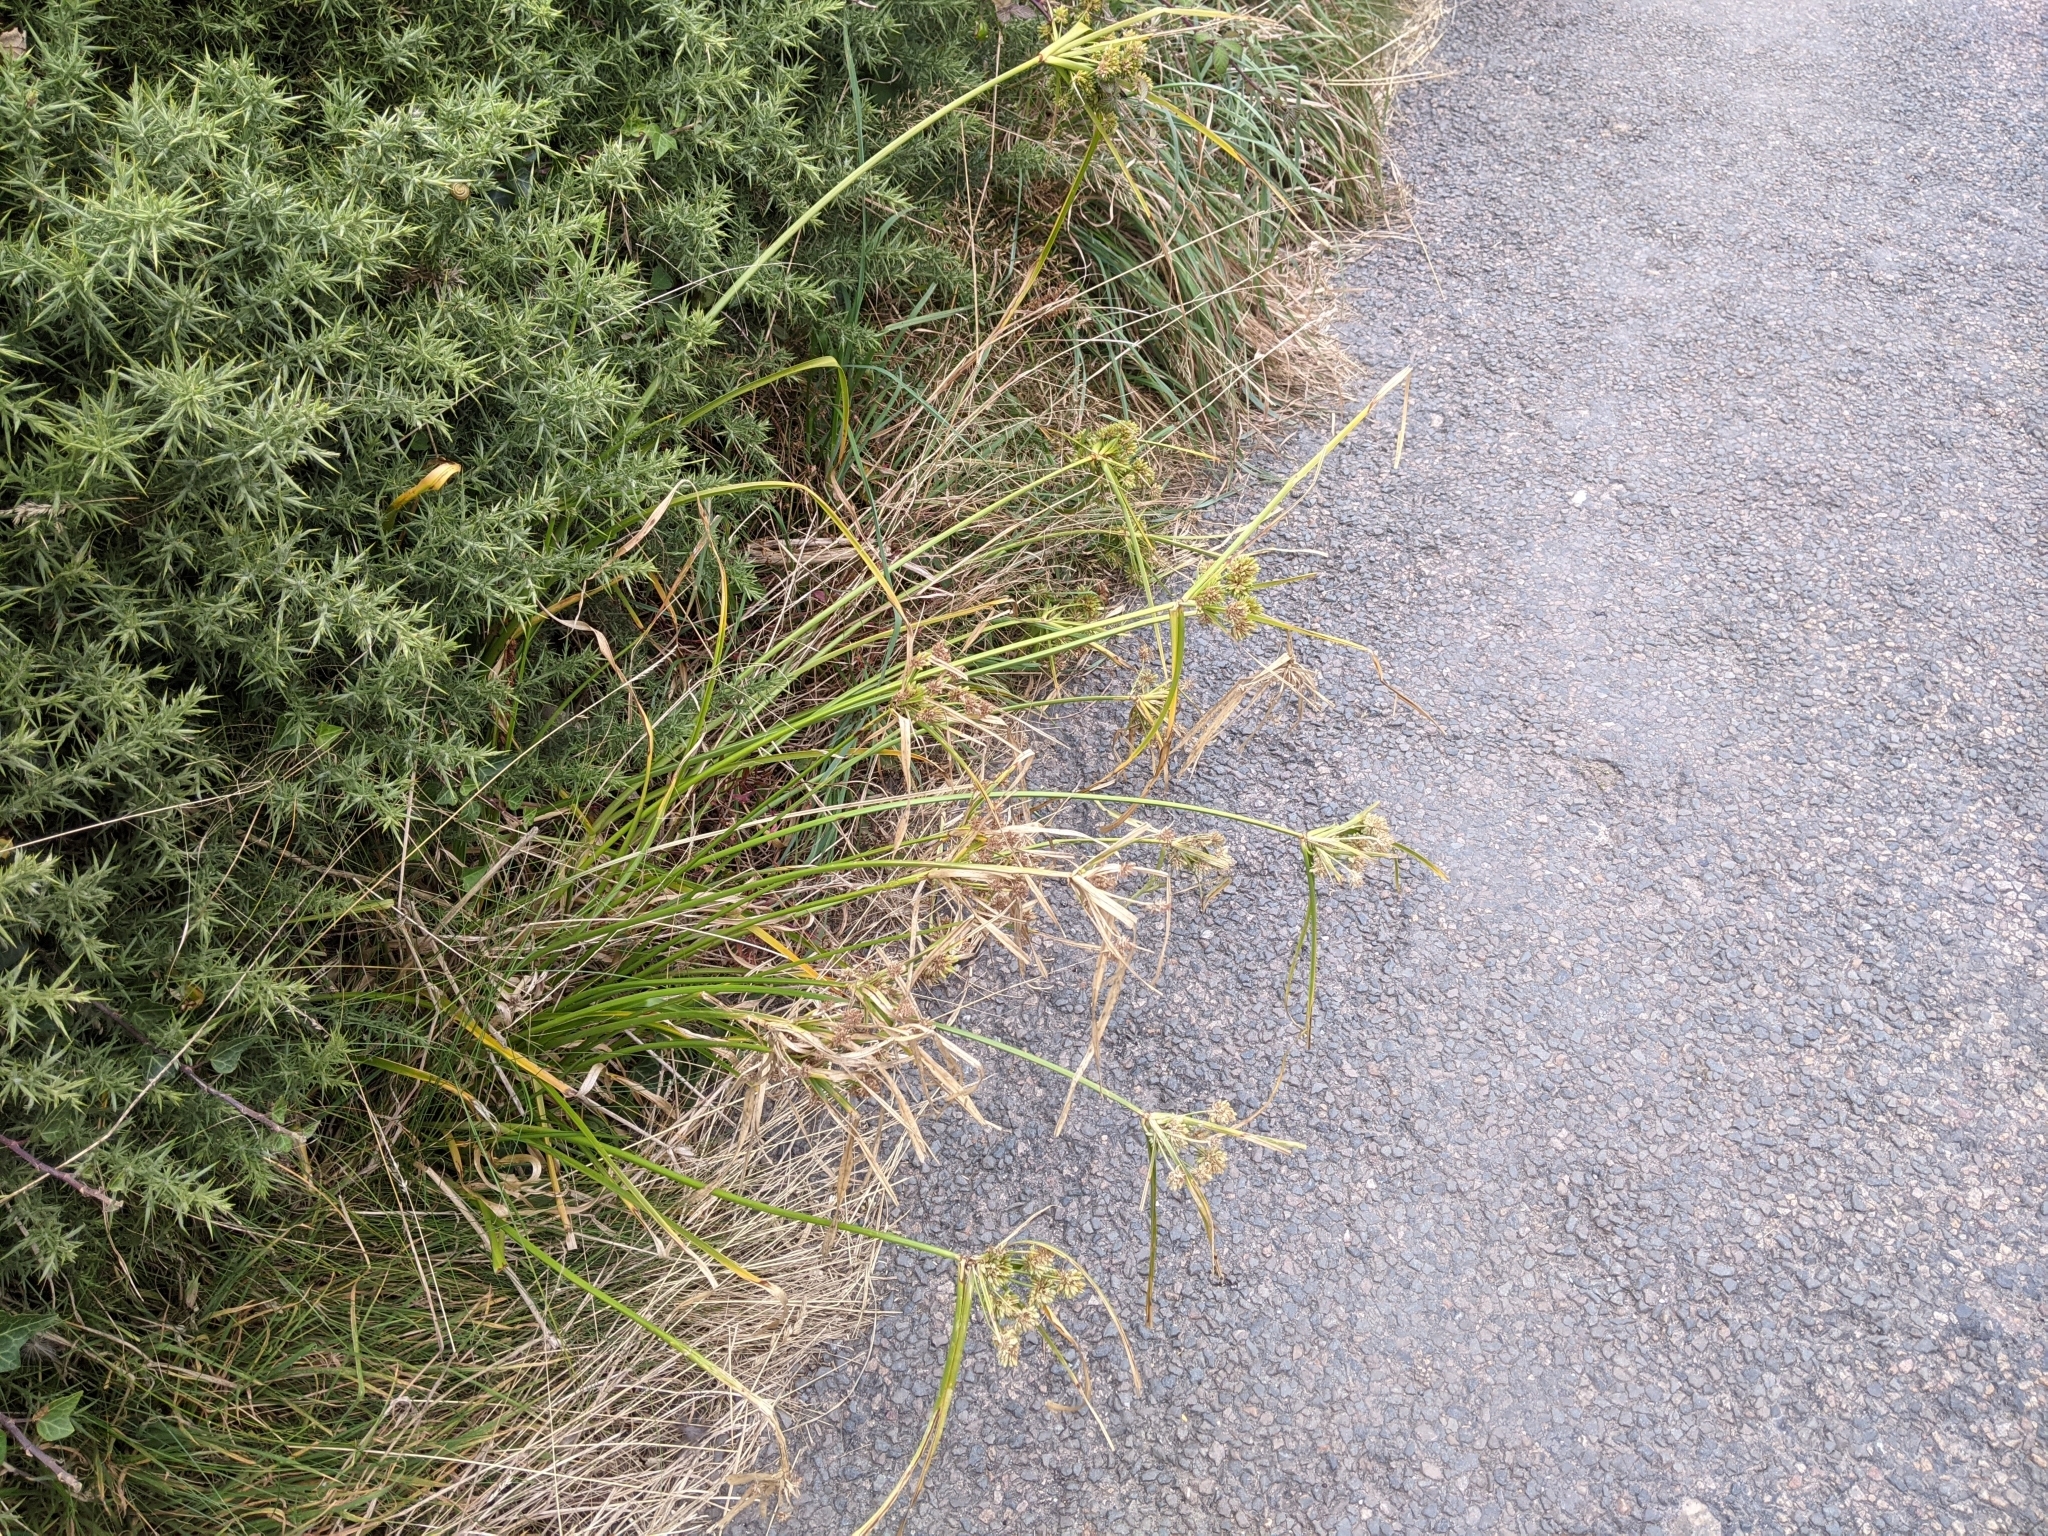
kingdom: Plantae
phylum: Tracheophyta
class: Liliopsida
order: Poales
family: Cyperaceae
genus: Cyperus
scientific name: Cyperus eragrostis
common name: Tall flatsedge
